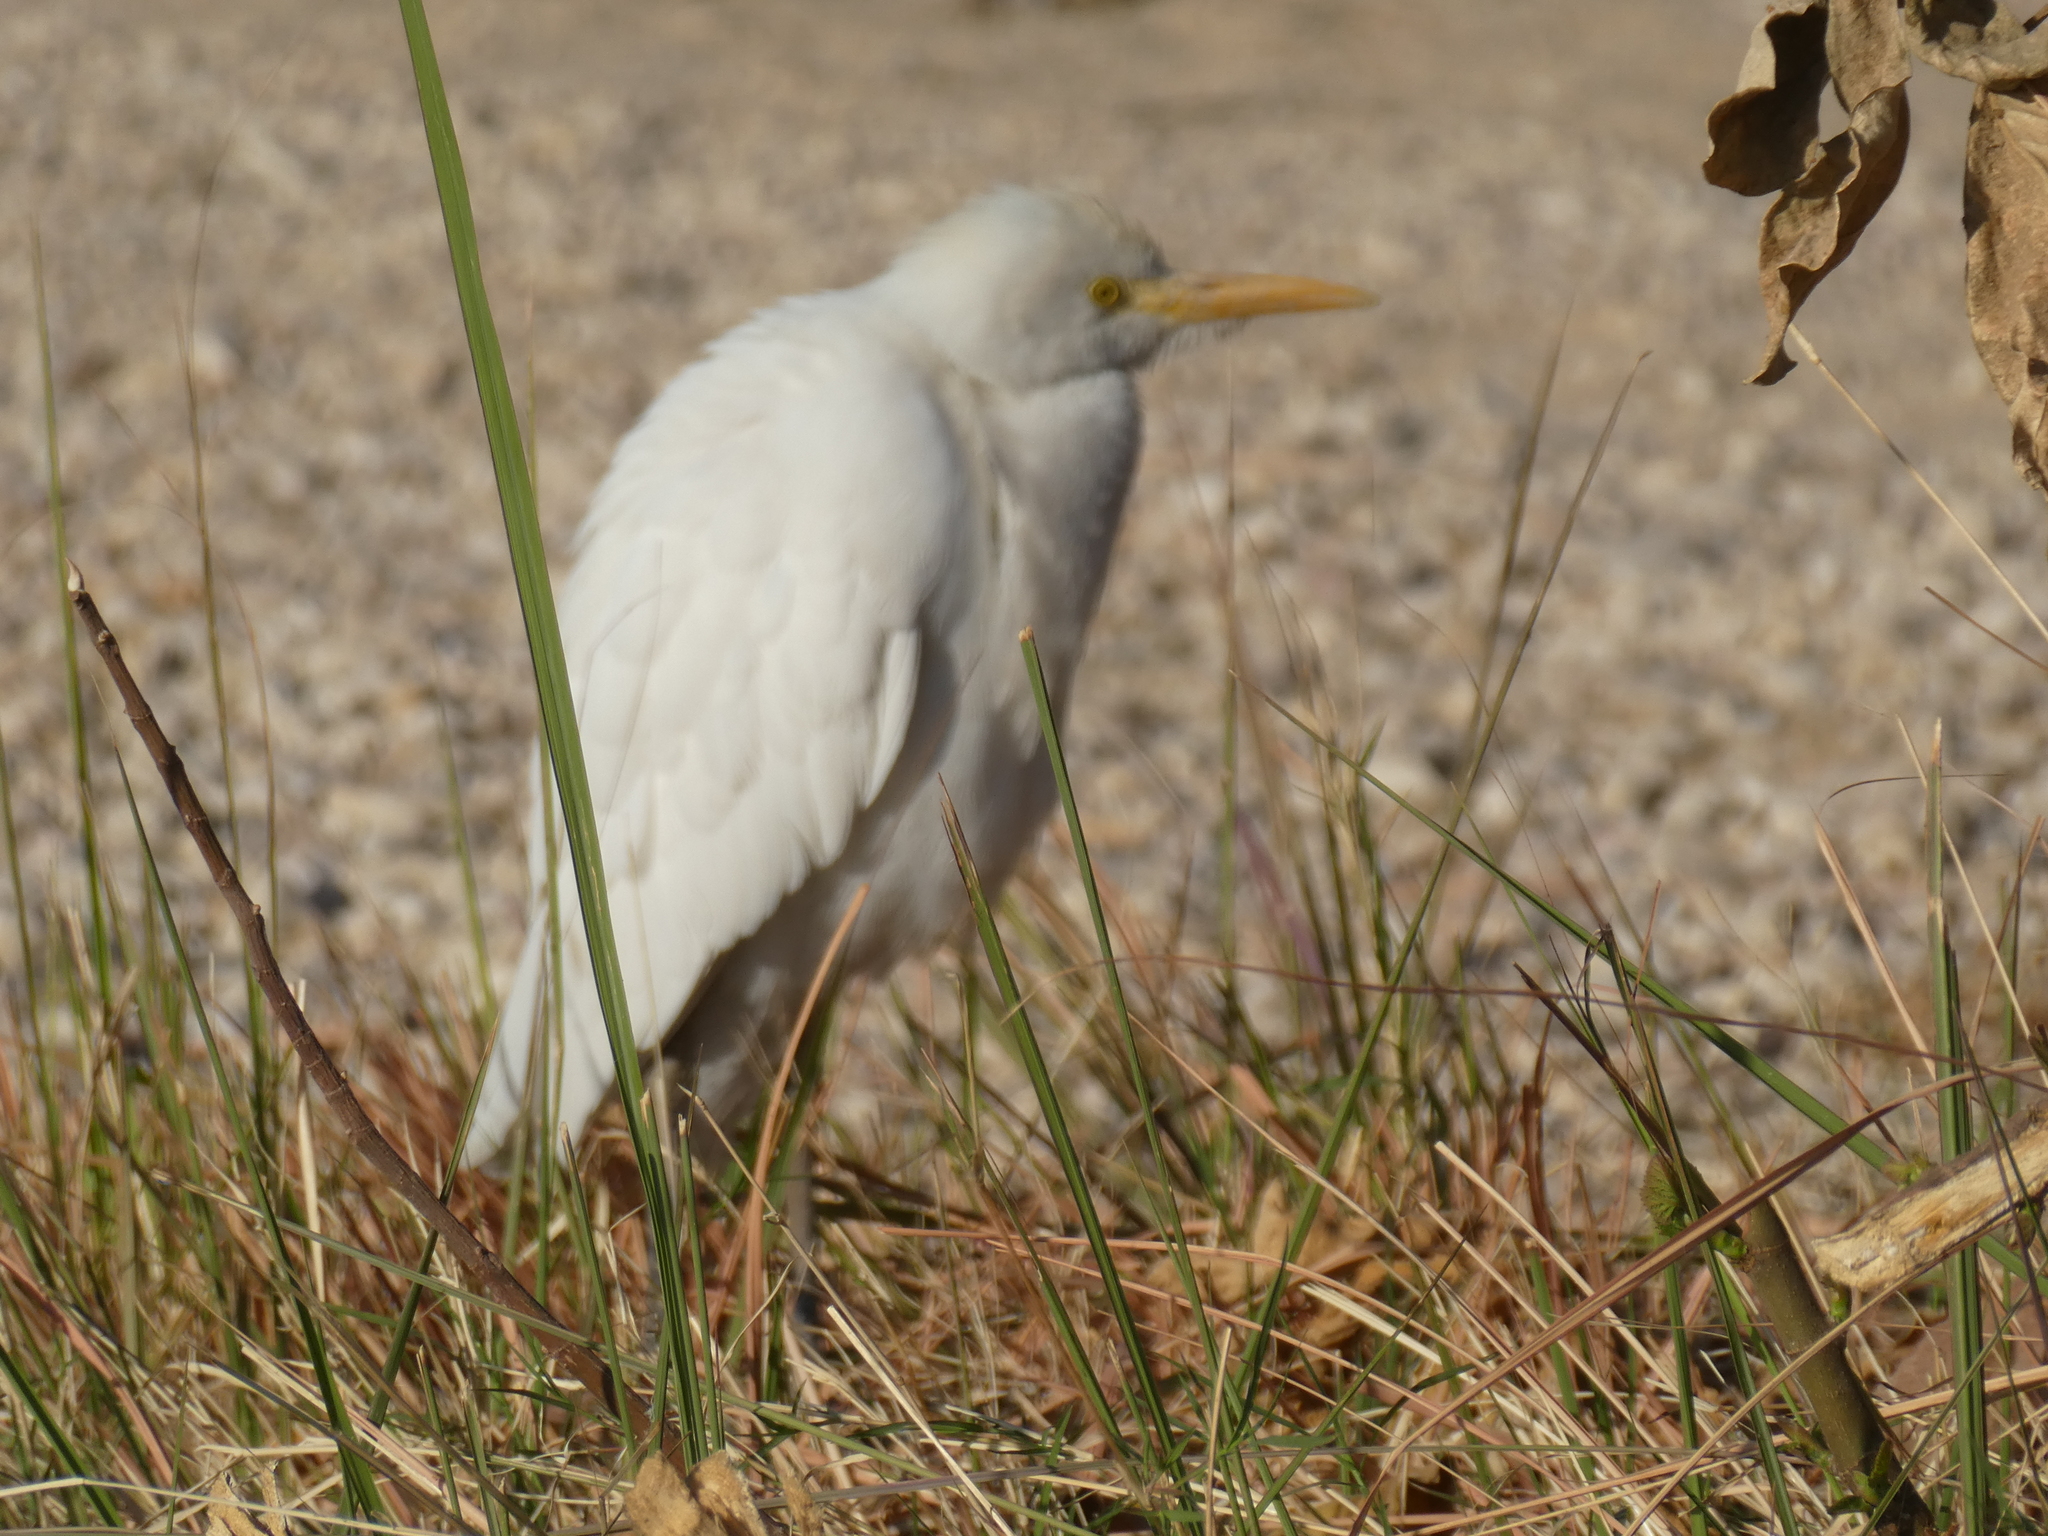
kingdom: Animalia
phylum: Chordata
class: Aves
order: Pelecaniformes
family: Ardeidae
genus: Bubulcus
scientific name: Bubulcus ibis
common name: Cattle egret
